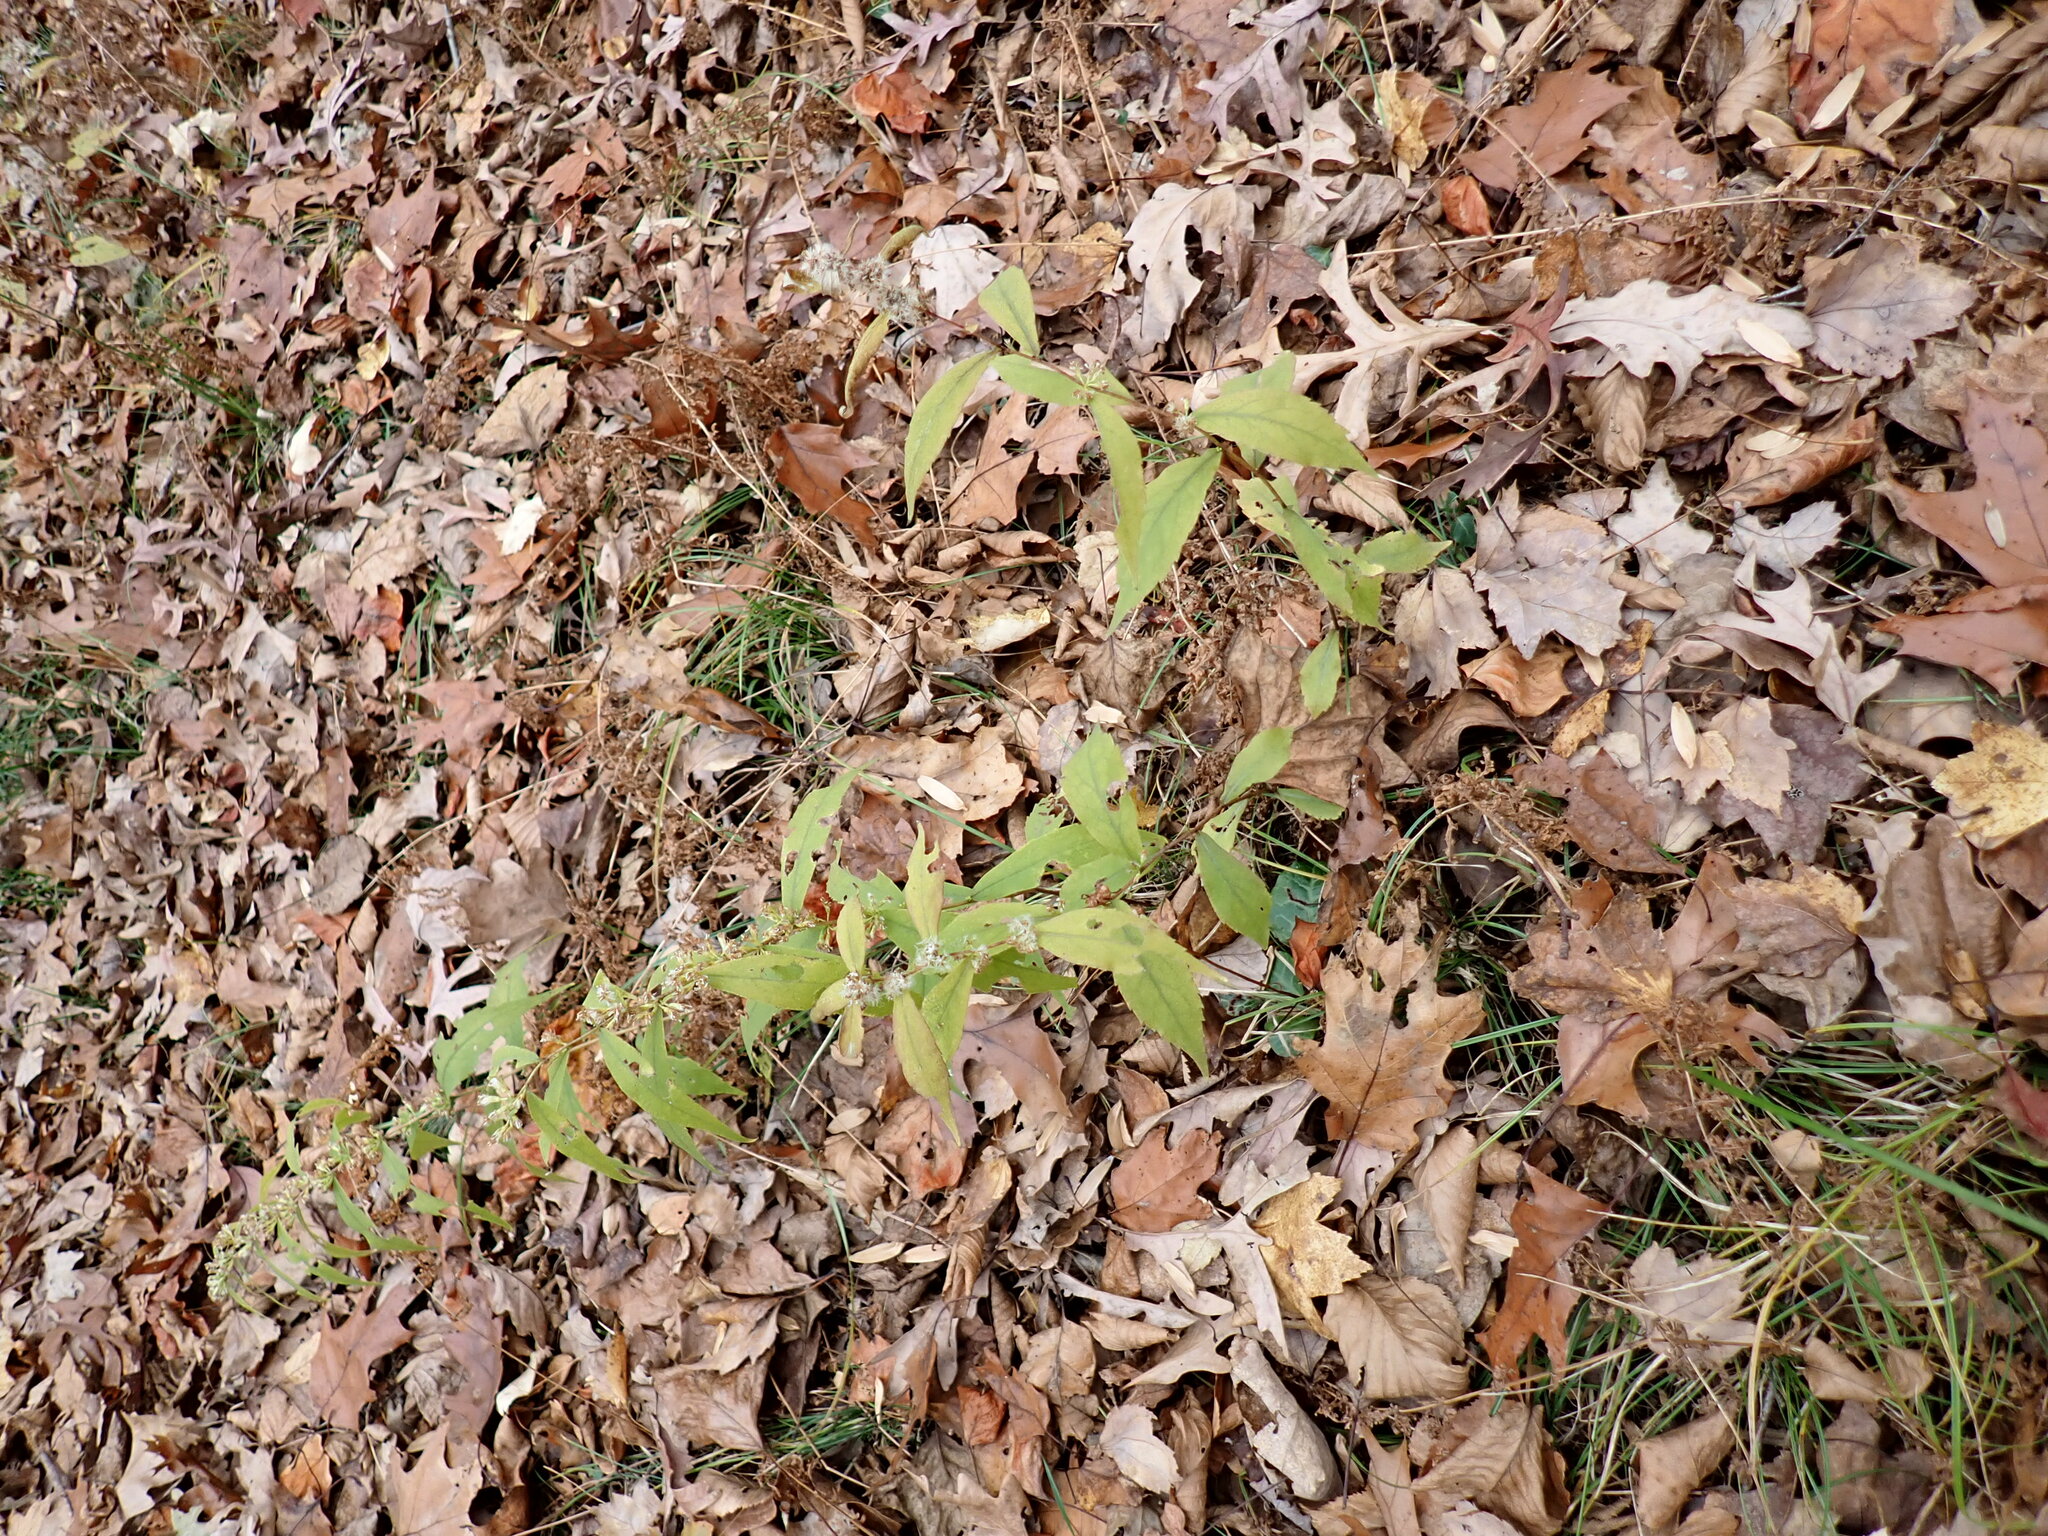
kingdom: Plantae
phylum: Tracheophyta
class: Magnoliopsida
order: Asterales
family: Asteraceae
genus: Solidago
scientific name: Solidago caesia
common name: Woodland goldenrod
